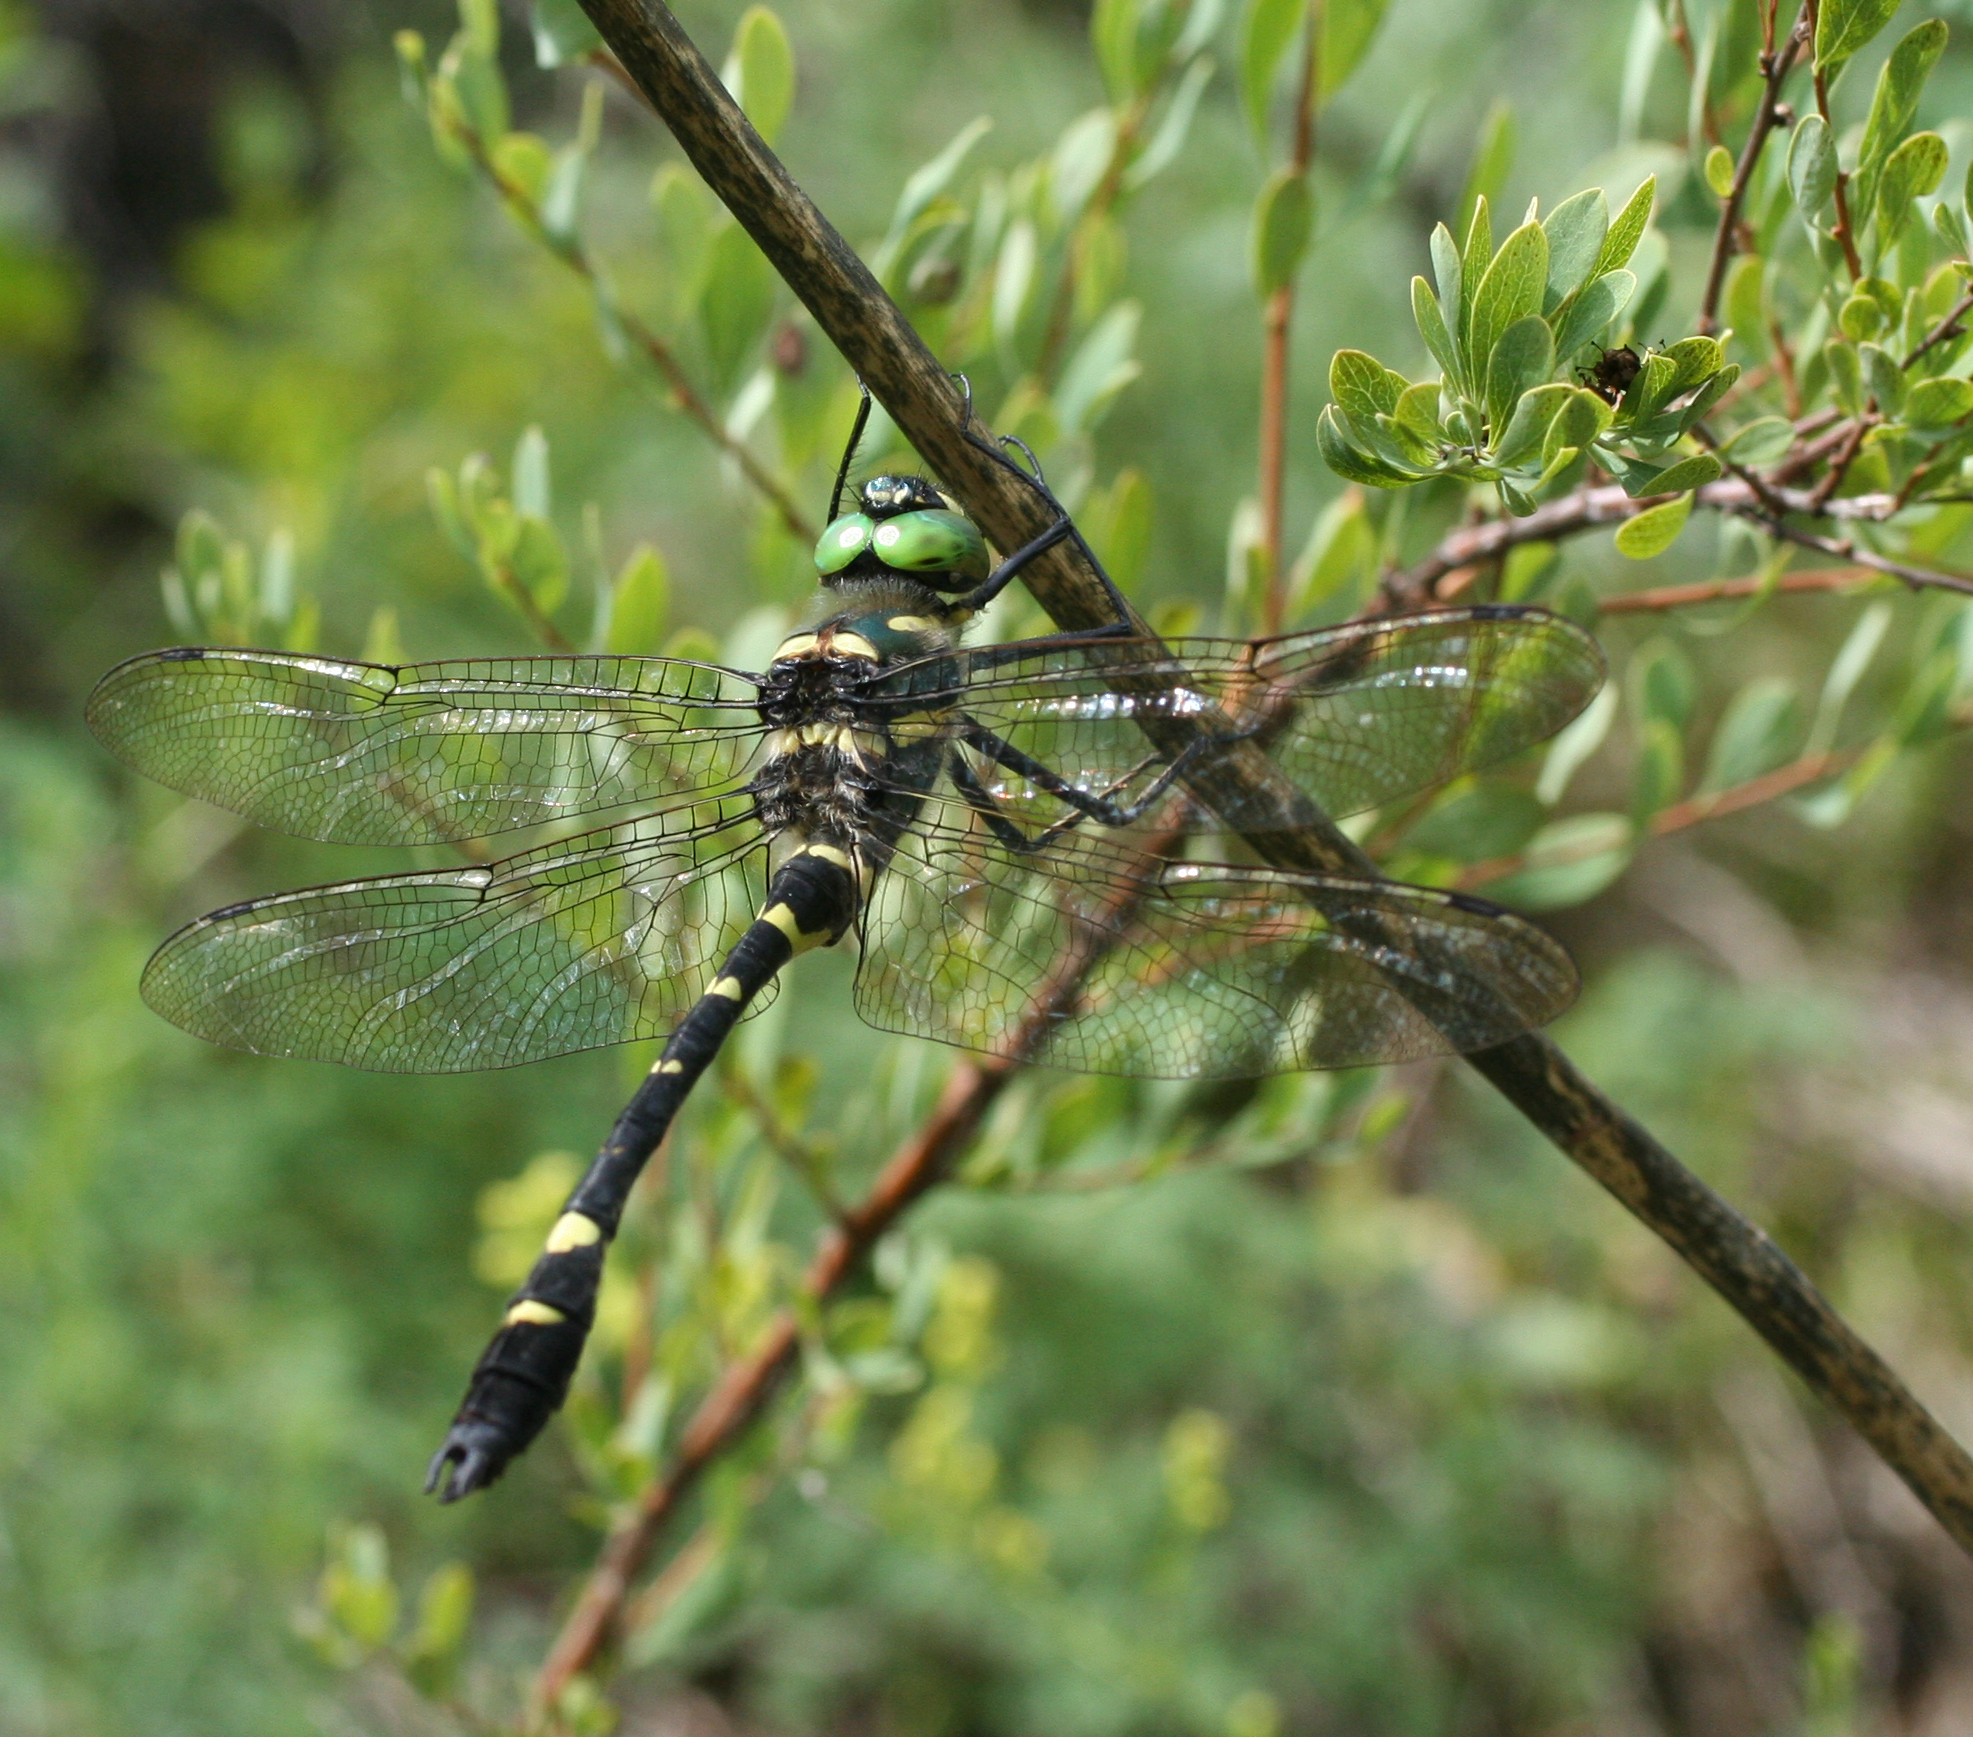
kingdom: Animalia
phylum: Arthropoda
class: Insecta
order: Odonata
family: Macromiidae
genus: Macromia
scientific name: Macromia amphigena
